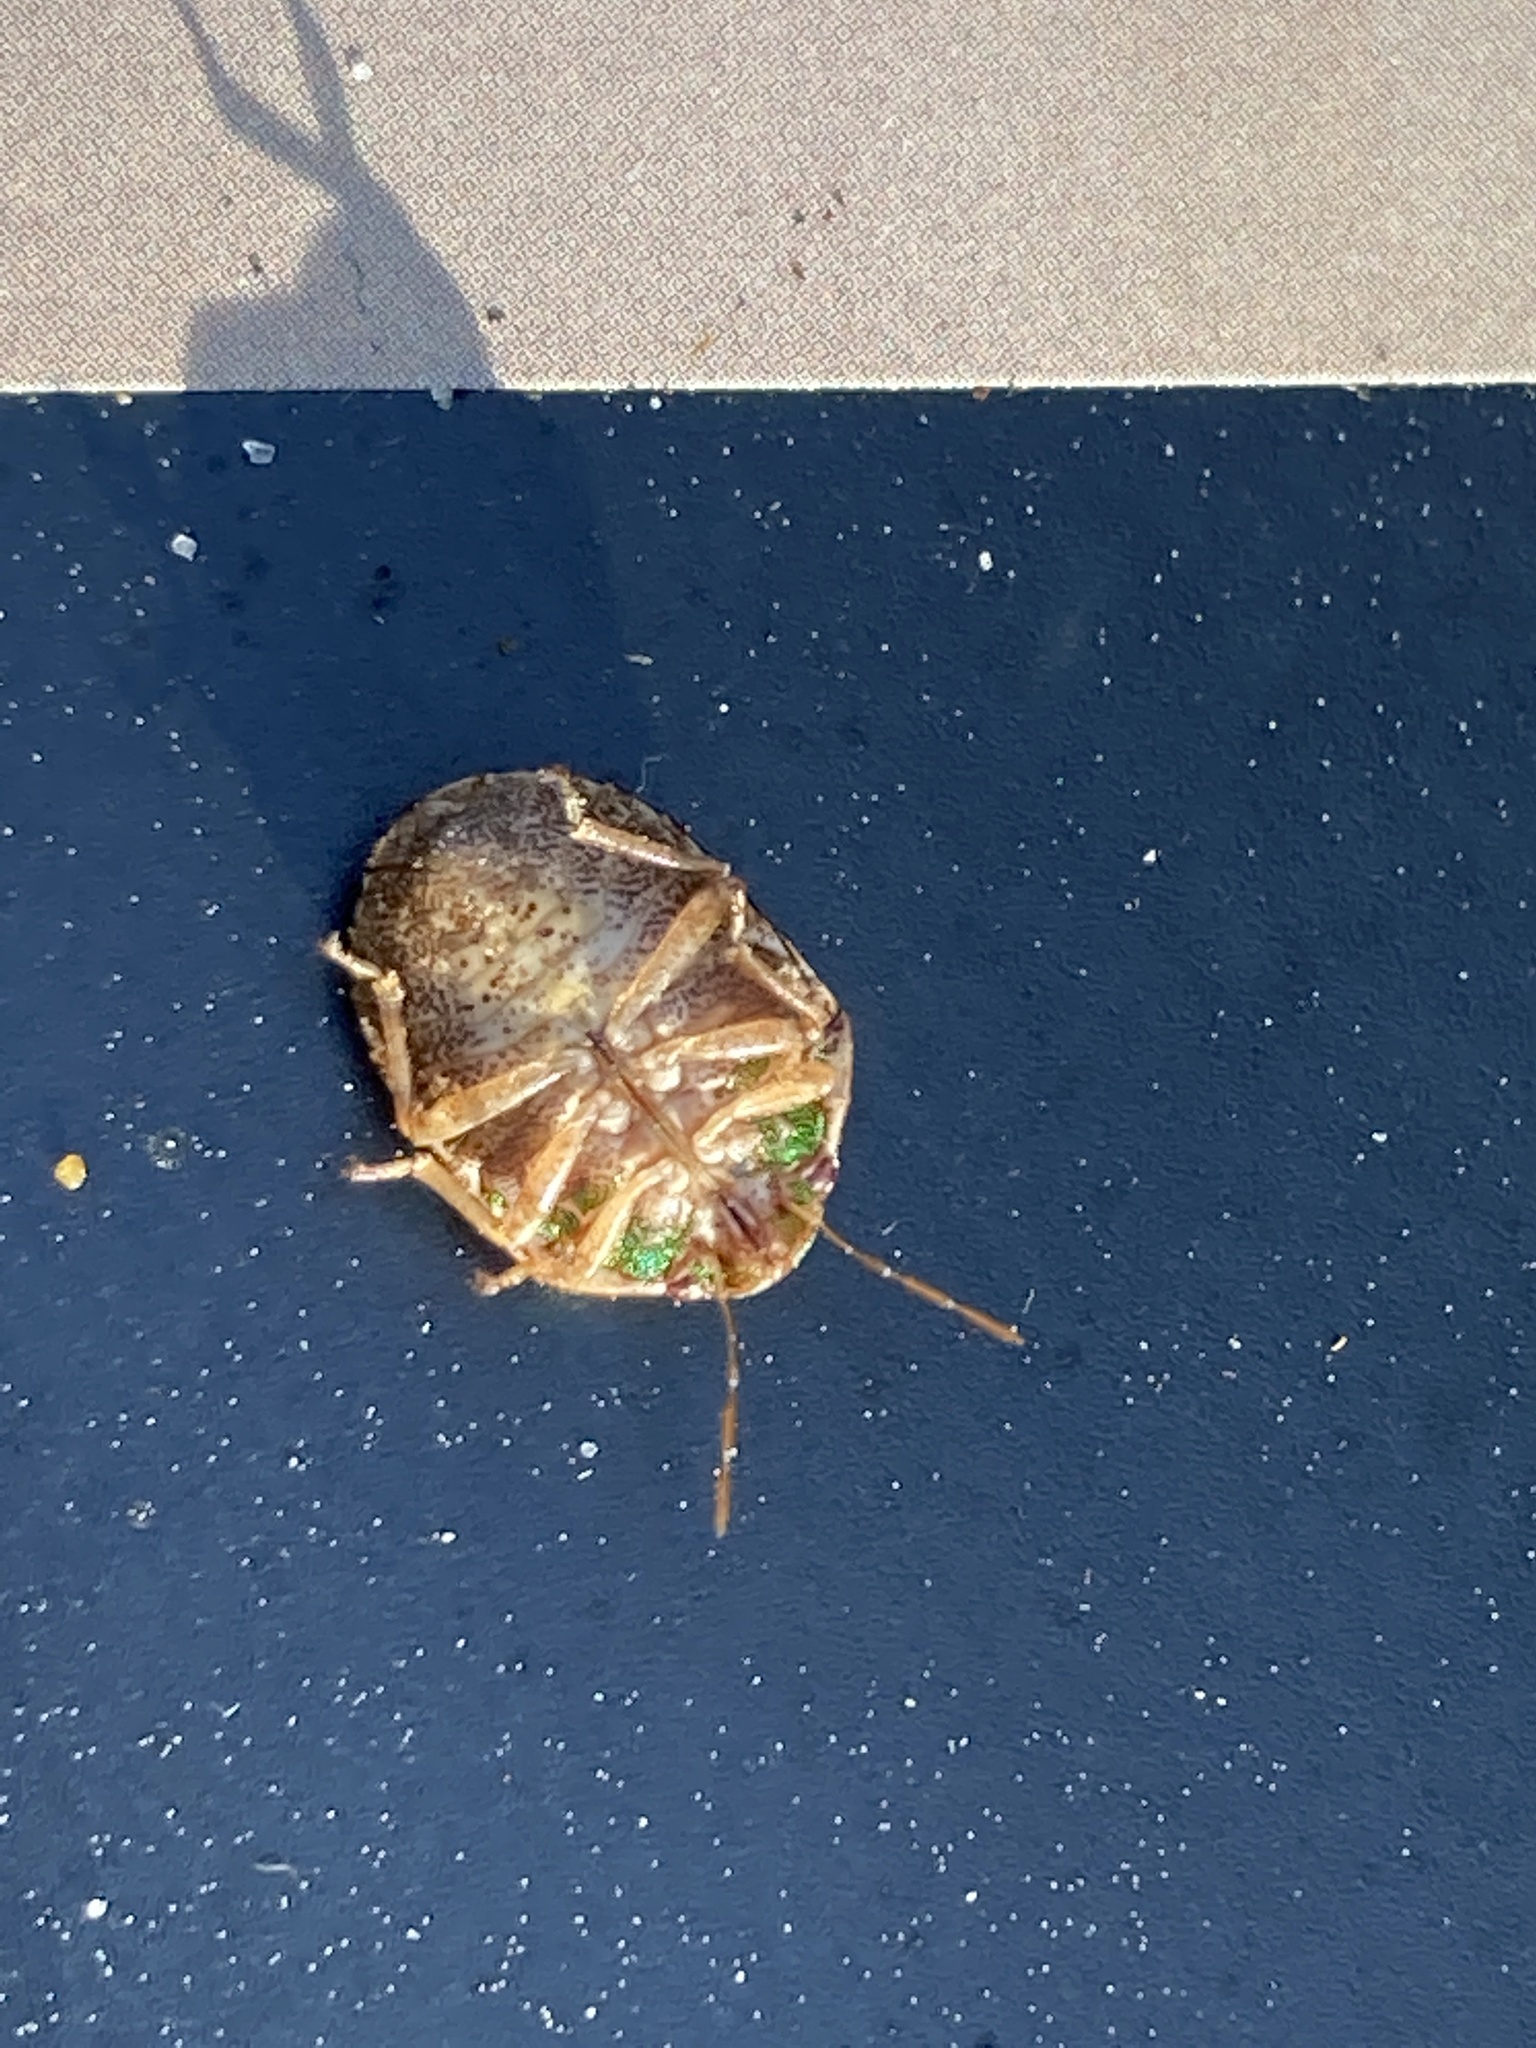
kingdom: Animalia
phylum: Arthropoda
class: Insecta
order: Hemiptera
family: Scutelleridae
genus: Diolcus
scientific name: Diolcus chrysorrhoeus
